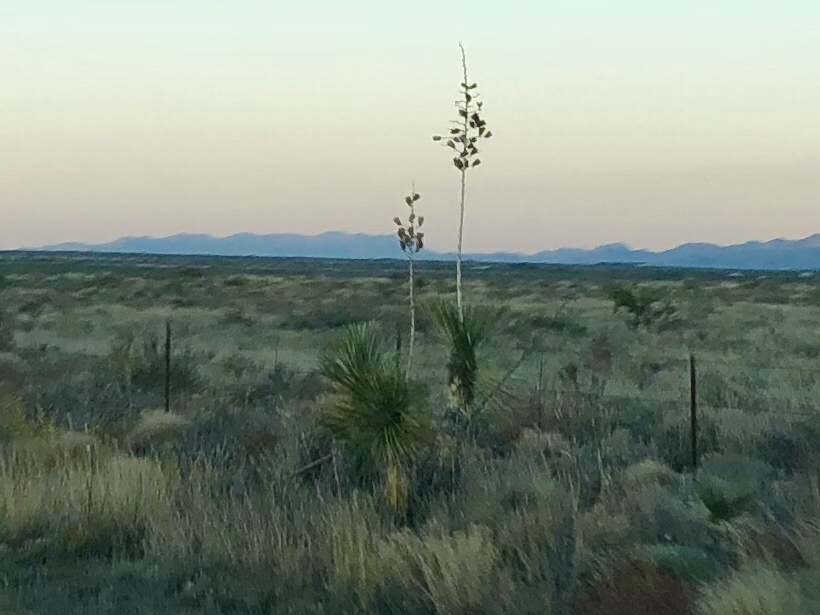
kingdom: Plantae
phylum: Tracheophyta
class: Liliopsida
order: Asparagales
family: Asparagaceae
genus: Yucca
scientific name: Yucca elata
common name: Palmella
